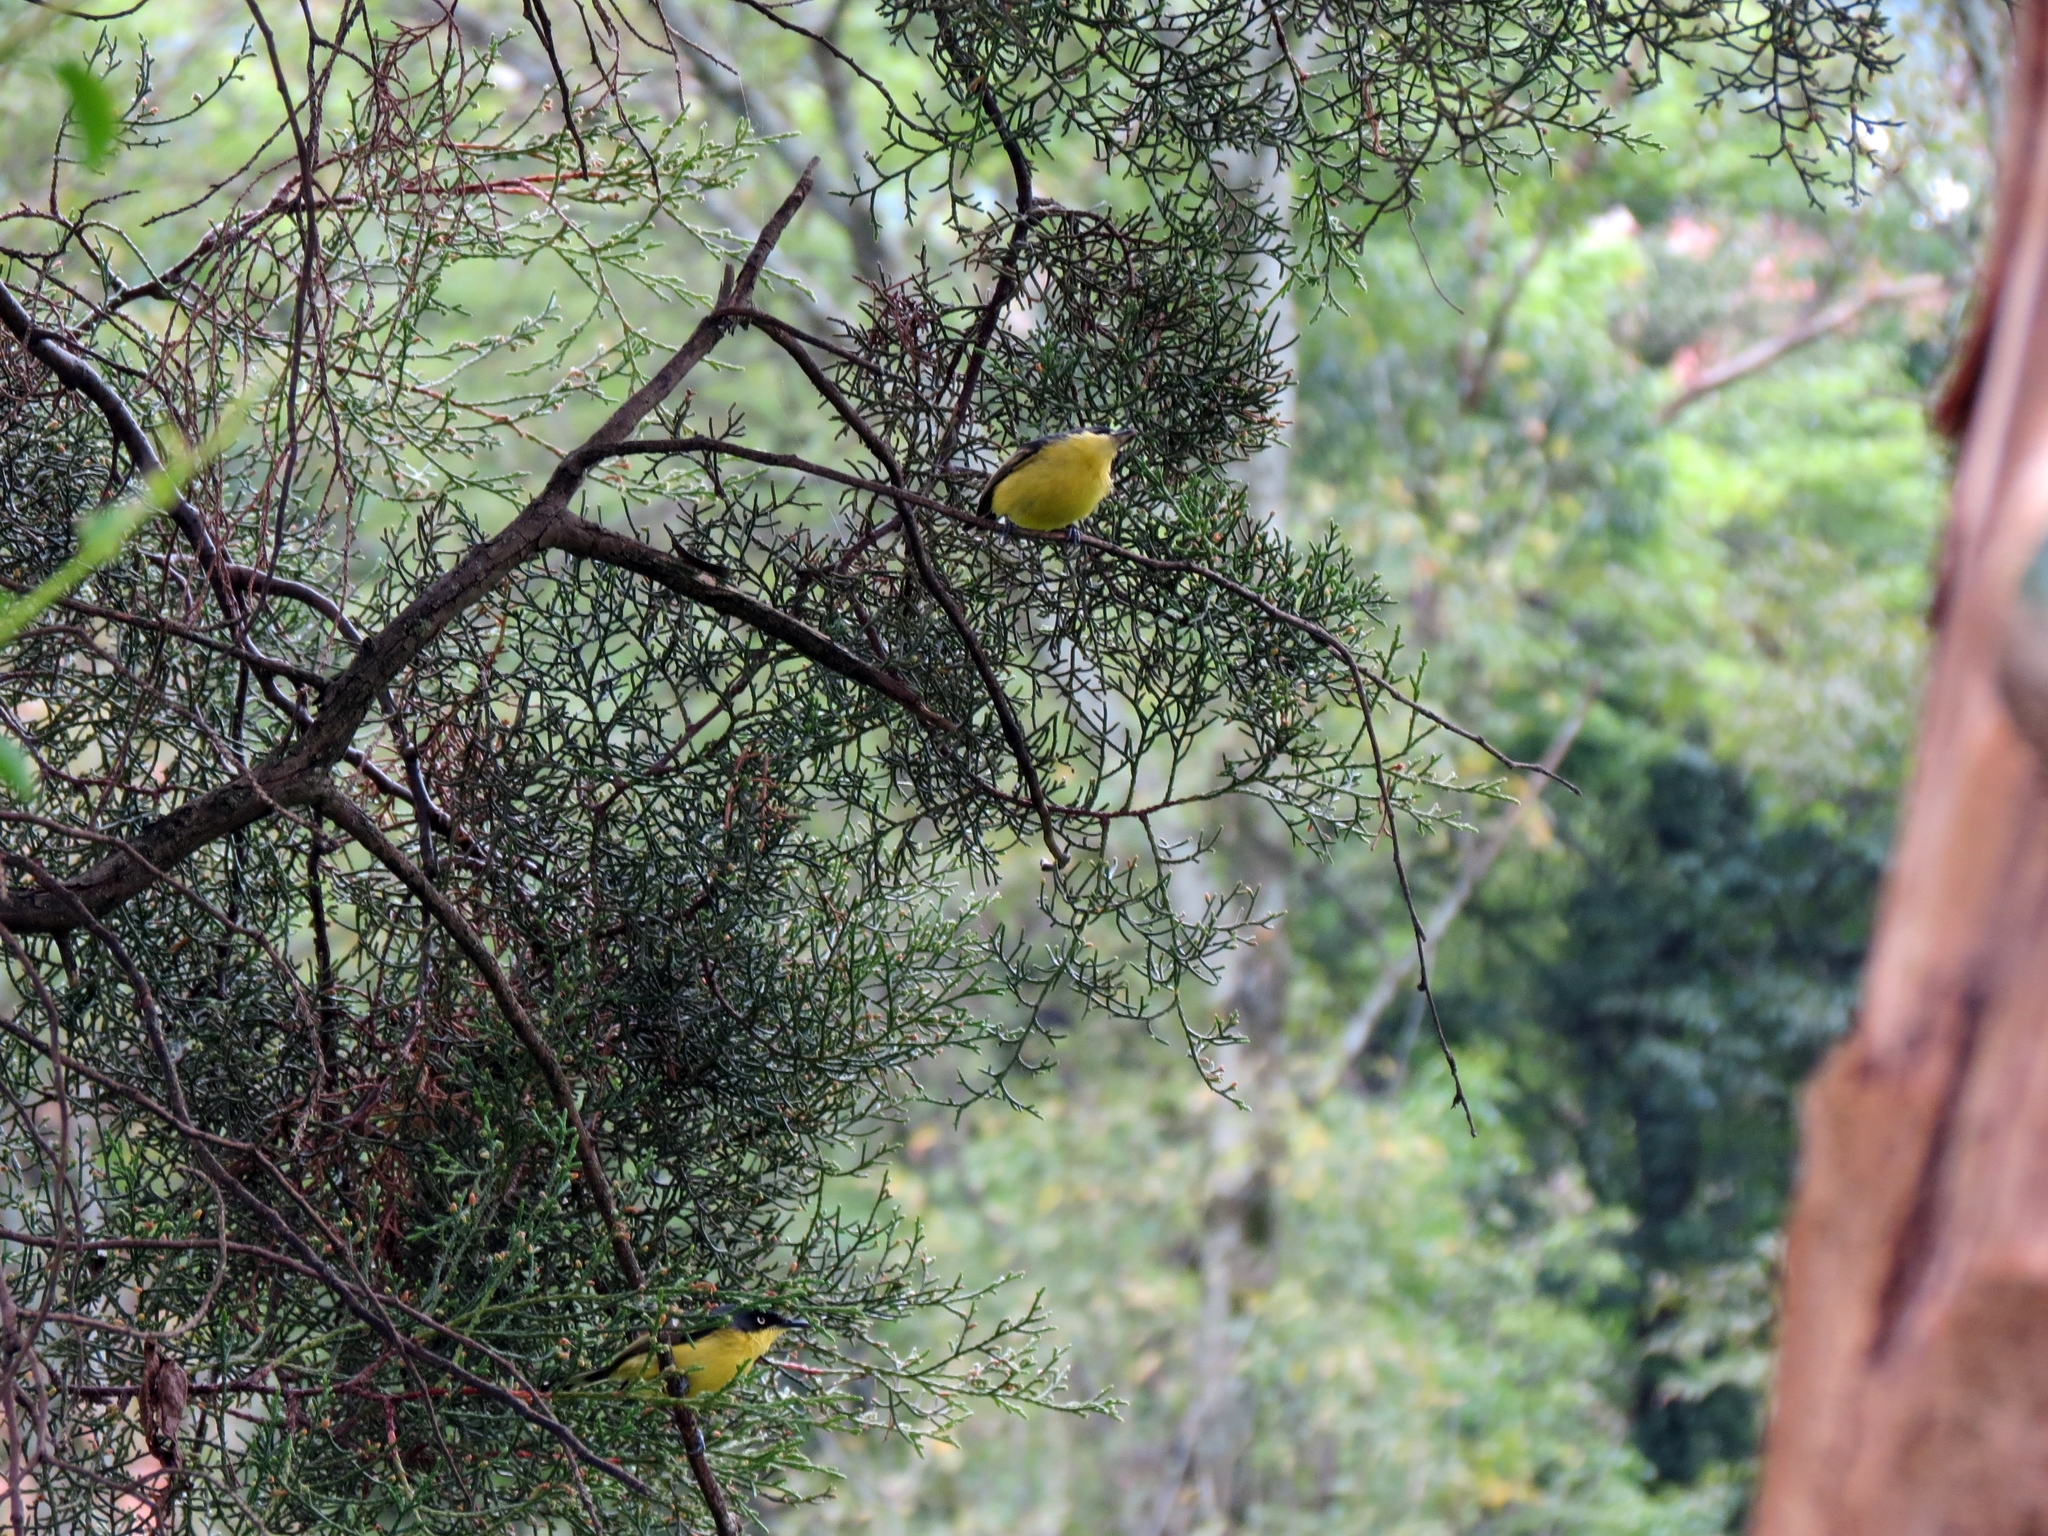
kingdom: Animalia
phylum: Chordata
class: Aves
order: Passeriformes
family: Tyrannidae
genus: Todirostrum
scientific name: Todirostrum cinereum
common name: Common tody-flycatcher
